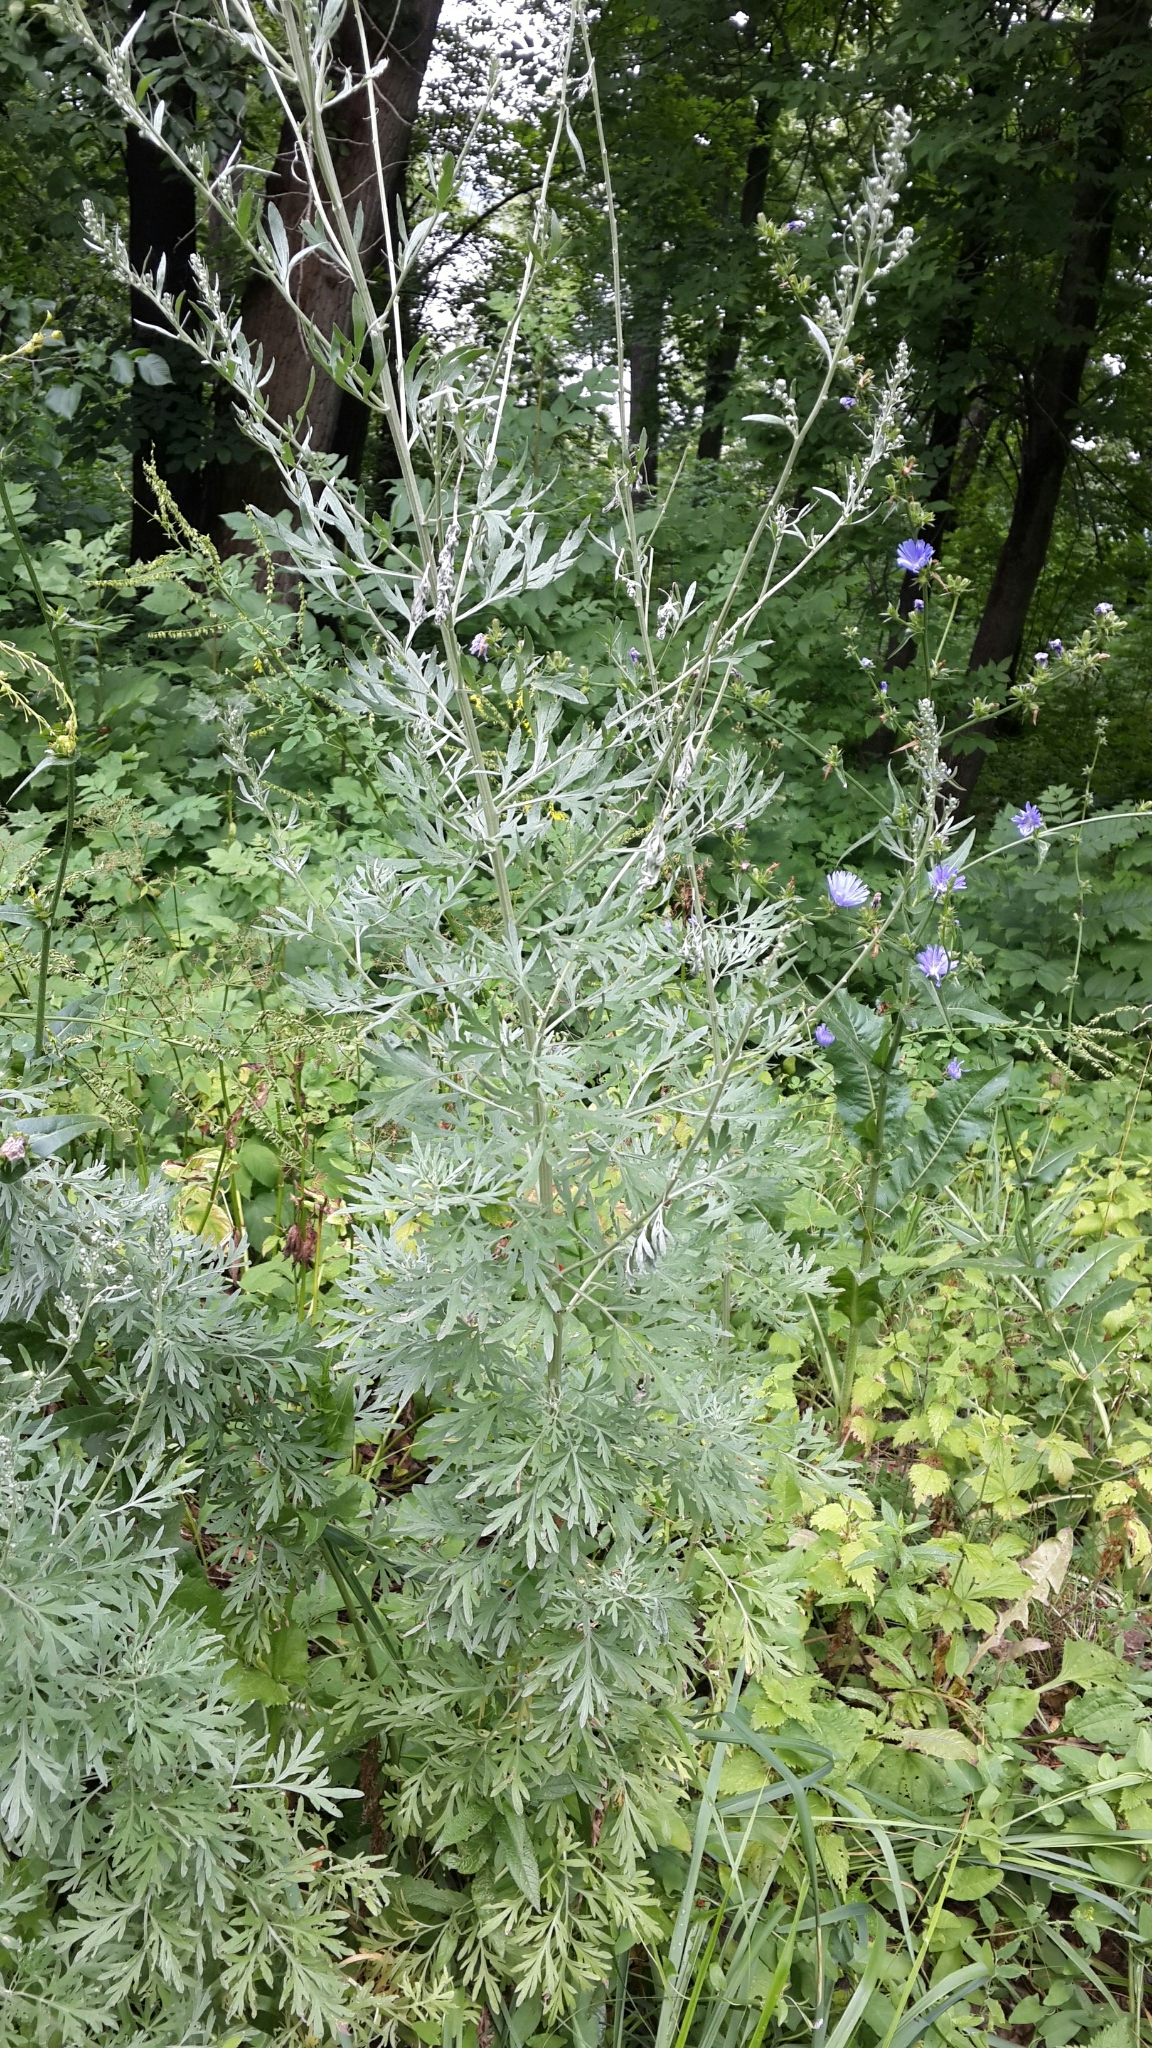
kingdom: Plantae
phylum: Tracheophyta
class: Magnoliopsida
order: Asterales
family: Asteraceae
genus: Artemisia
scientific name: Artemisia absinthium
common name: Wormwood
